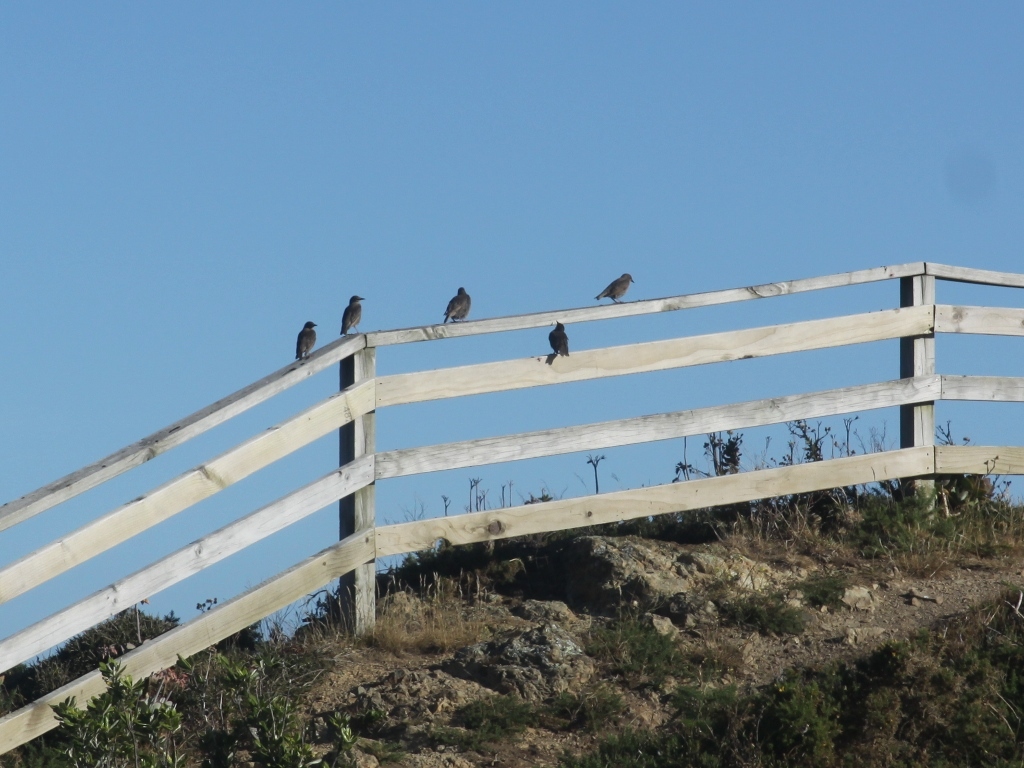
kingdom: Animalia
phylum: Chordata
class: Aves
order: Passeriformes
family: Sturnidae
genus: Sturnus
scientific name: Sturnus vulgaris
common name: Common starling
